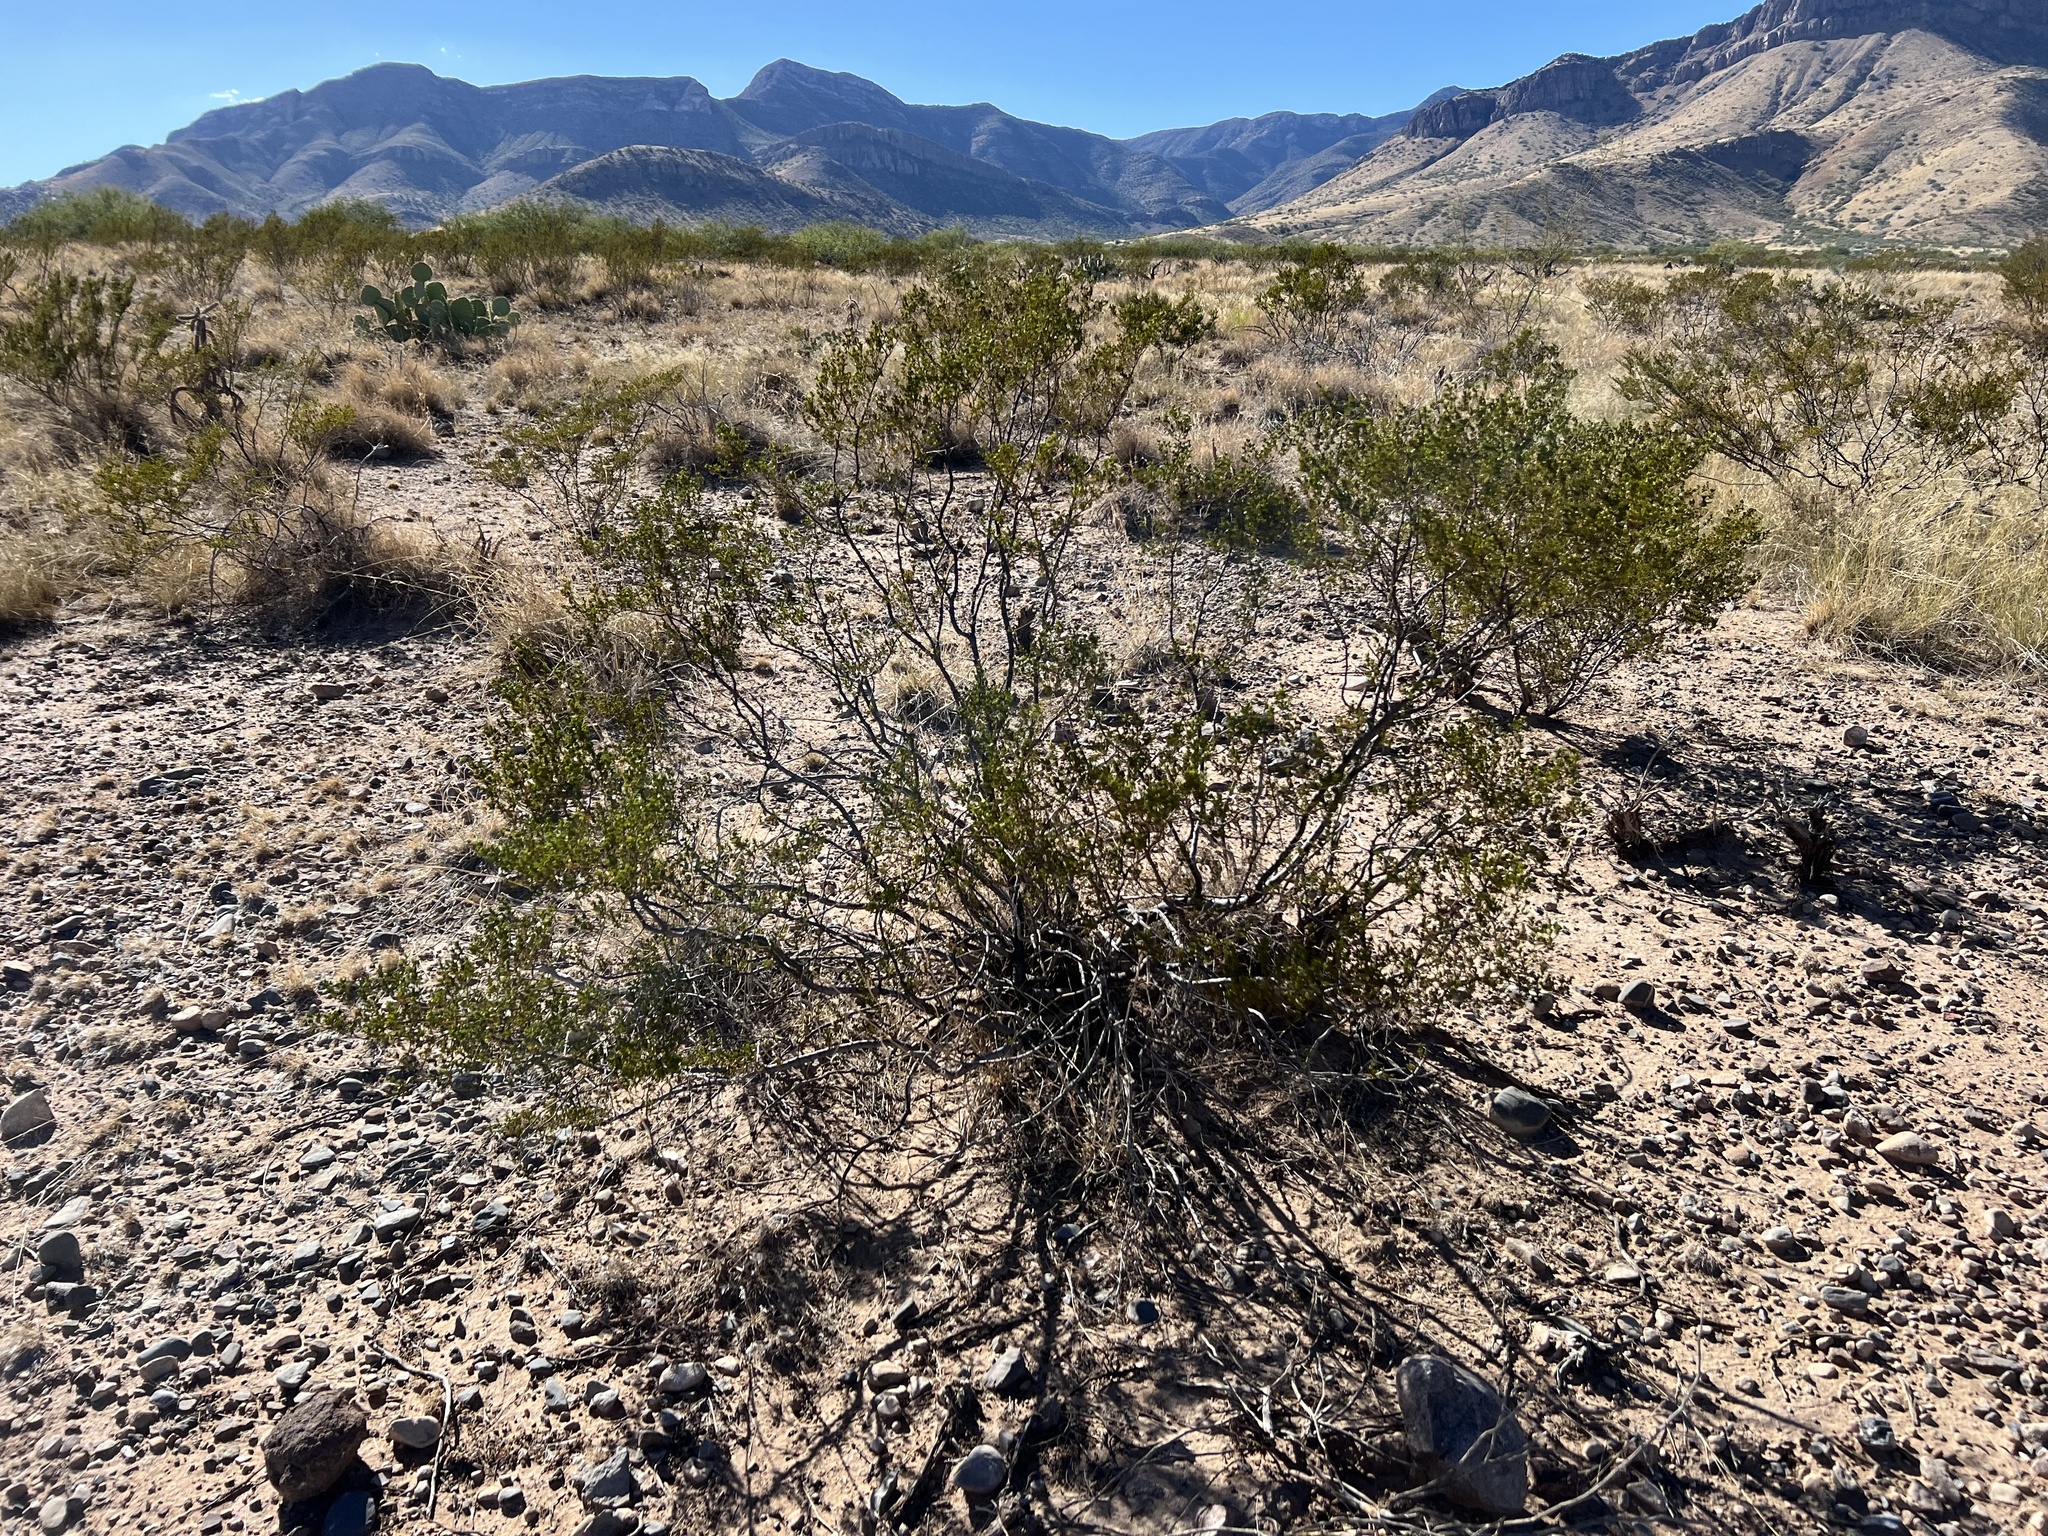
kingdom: Plantae
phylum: Tracheophyta
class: Magnoliopsida
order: Zygophyllales
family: Zygophyllaceae
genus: Larrea
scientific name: Larrea tridentata
